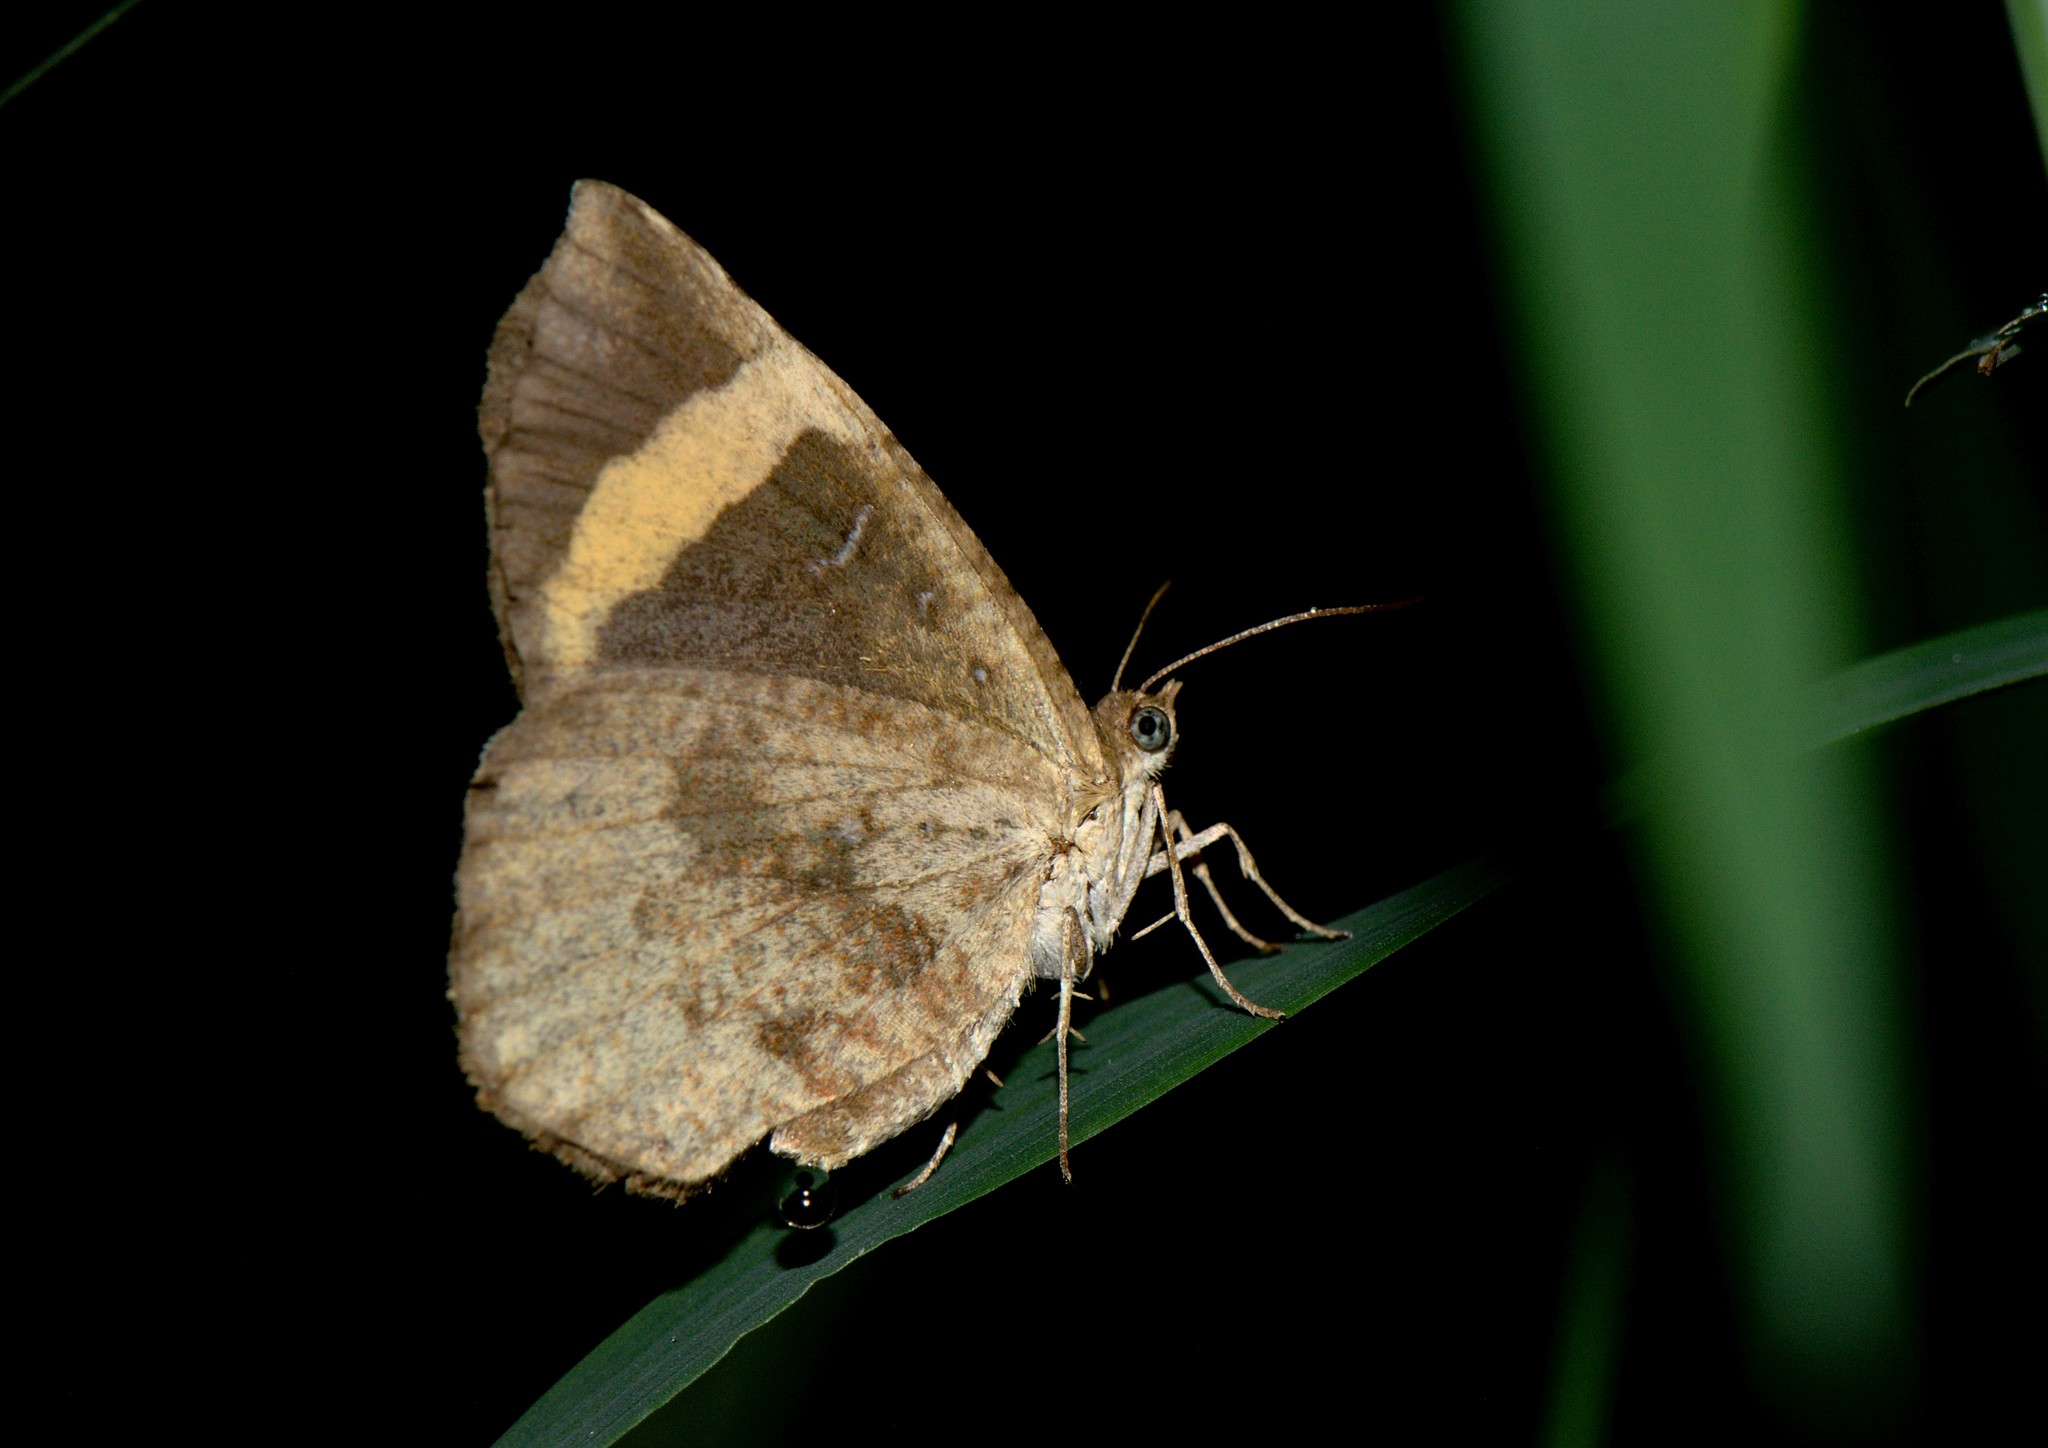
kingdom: Animalia
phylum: Arthropoda
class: Insecta
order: Lepidoptera
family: Callidulidae
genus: Petavia
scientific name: Petavia attenuata
